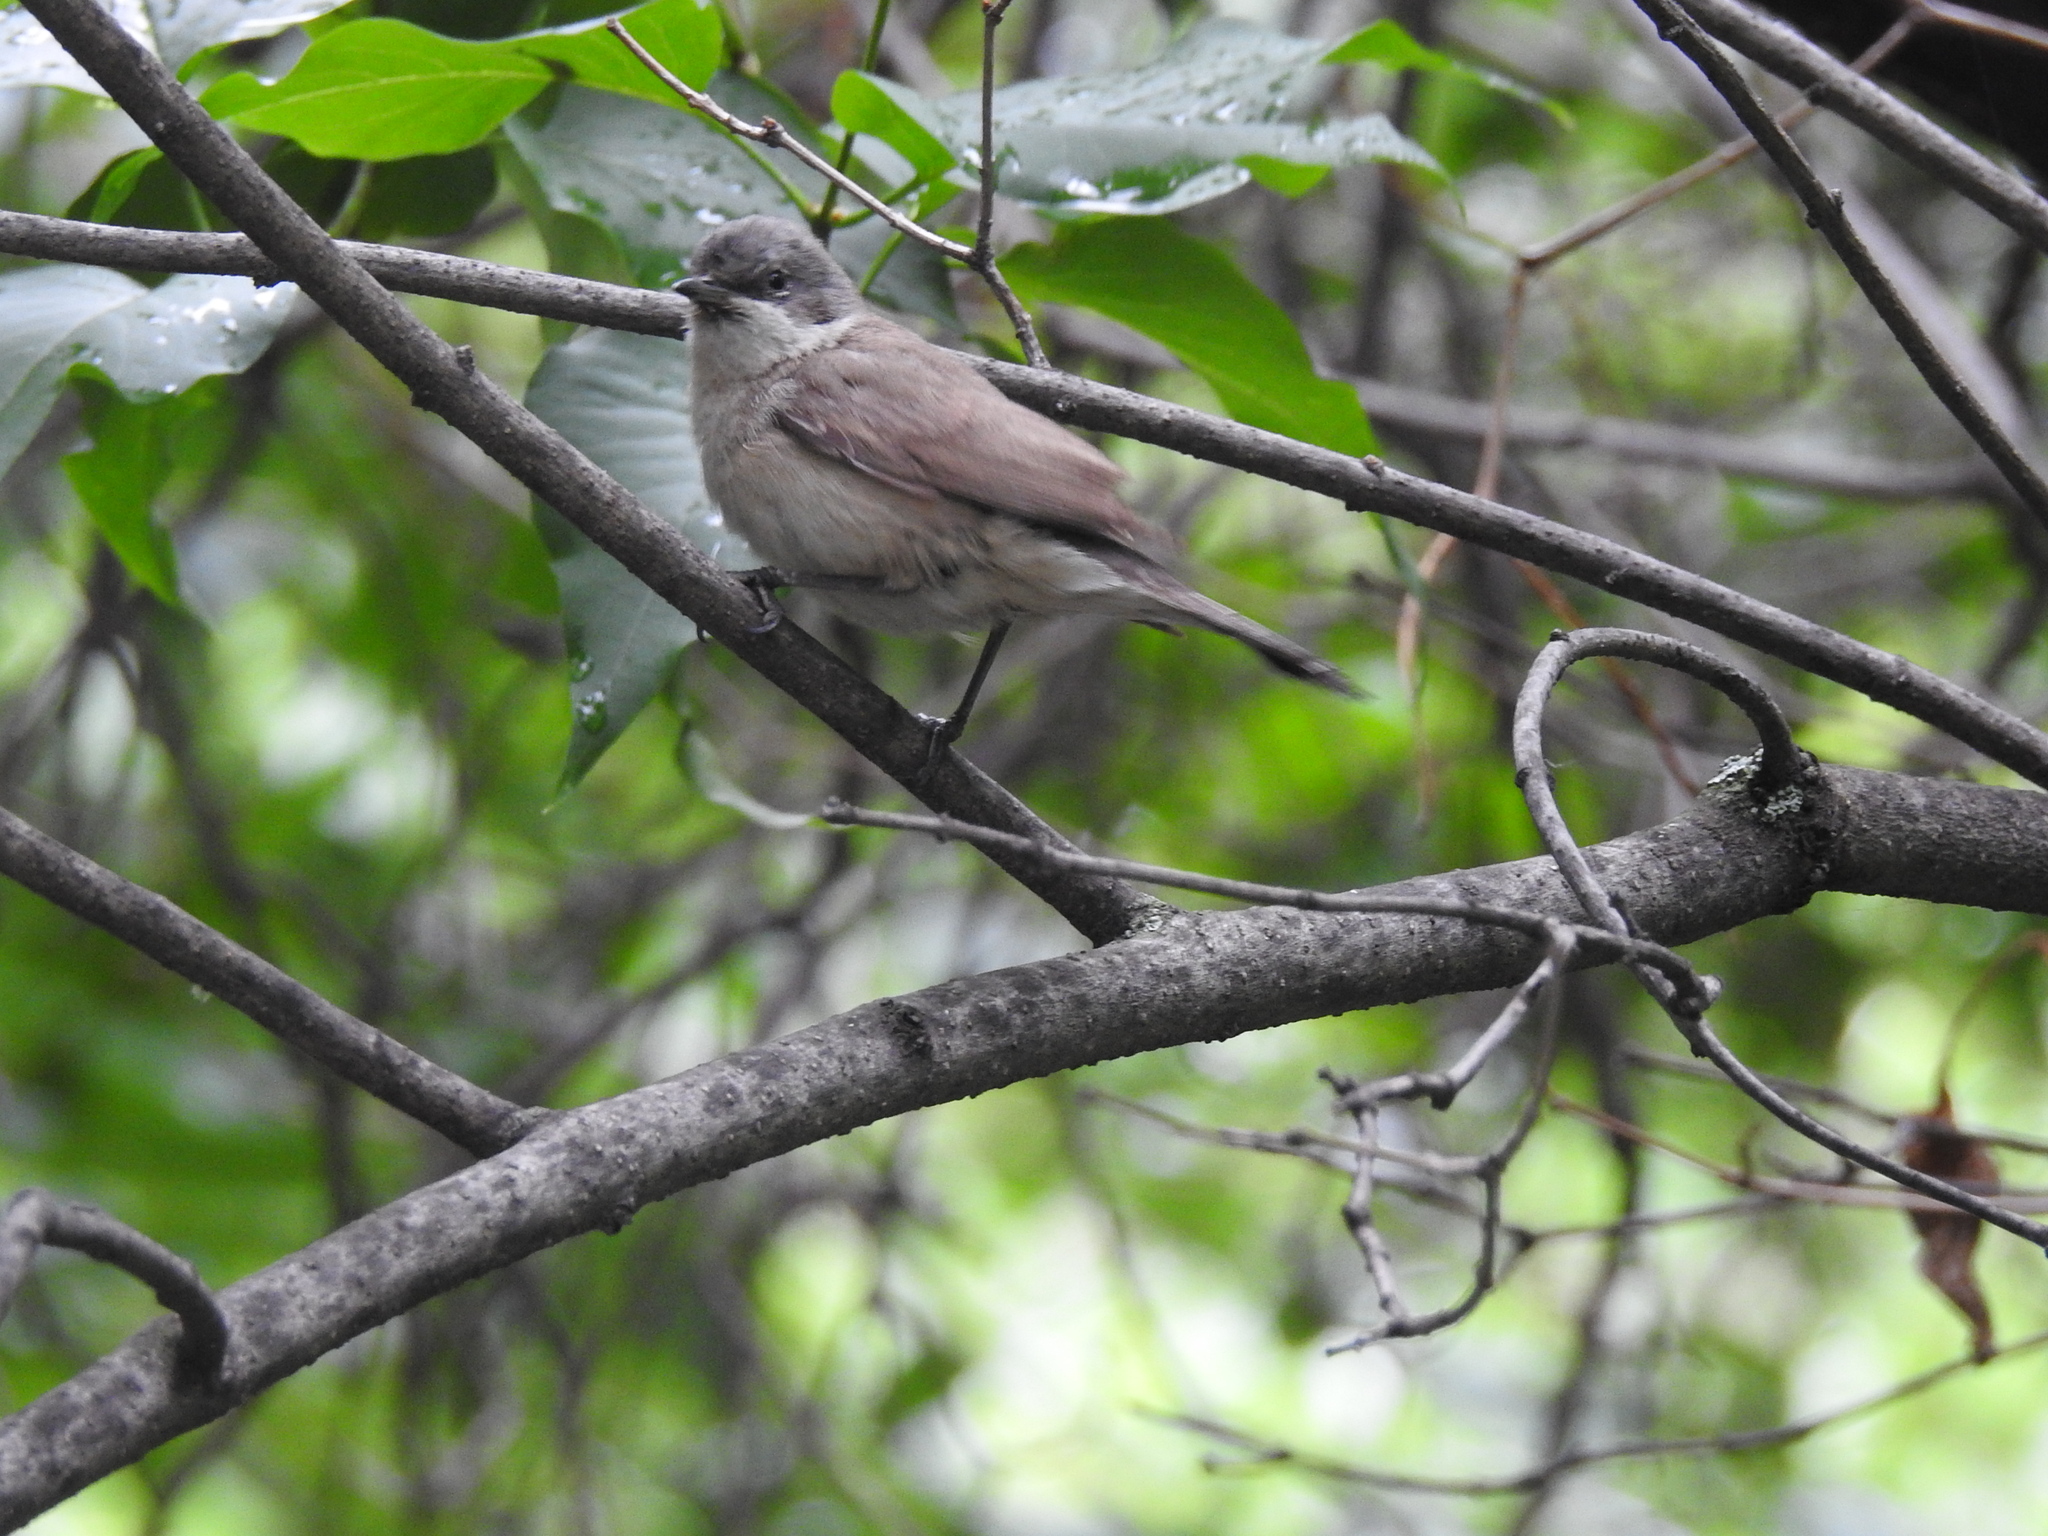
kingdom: Animalia
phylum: Chordata
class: Aves
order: Passeriformes
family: Sylviidae
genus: Sylvia
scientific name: Sylvia curruca
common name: Lesser whitethroat
